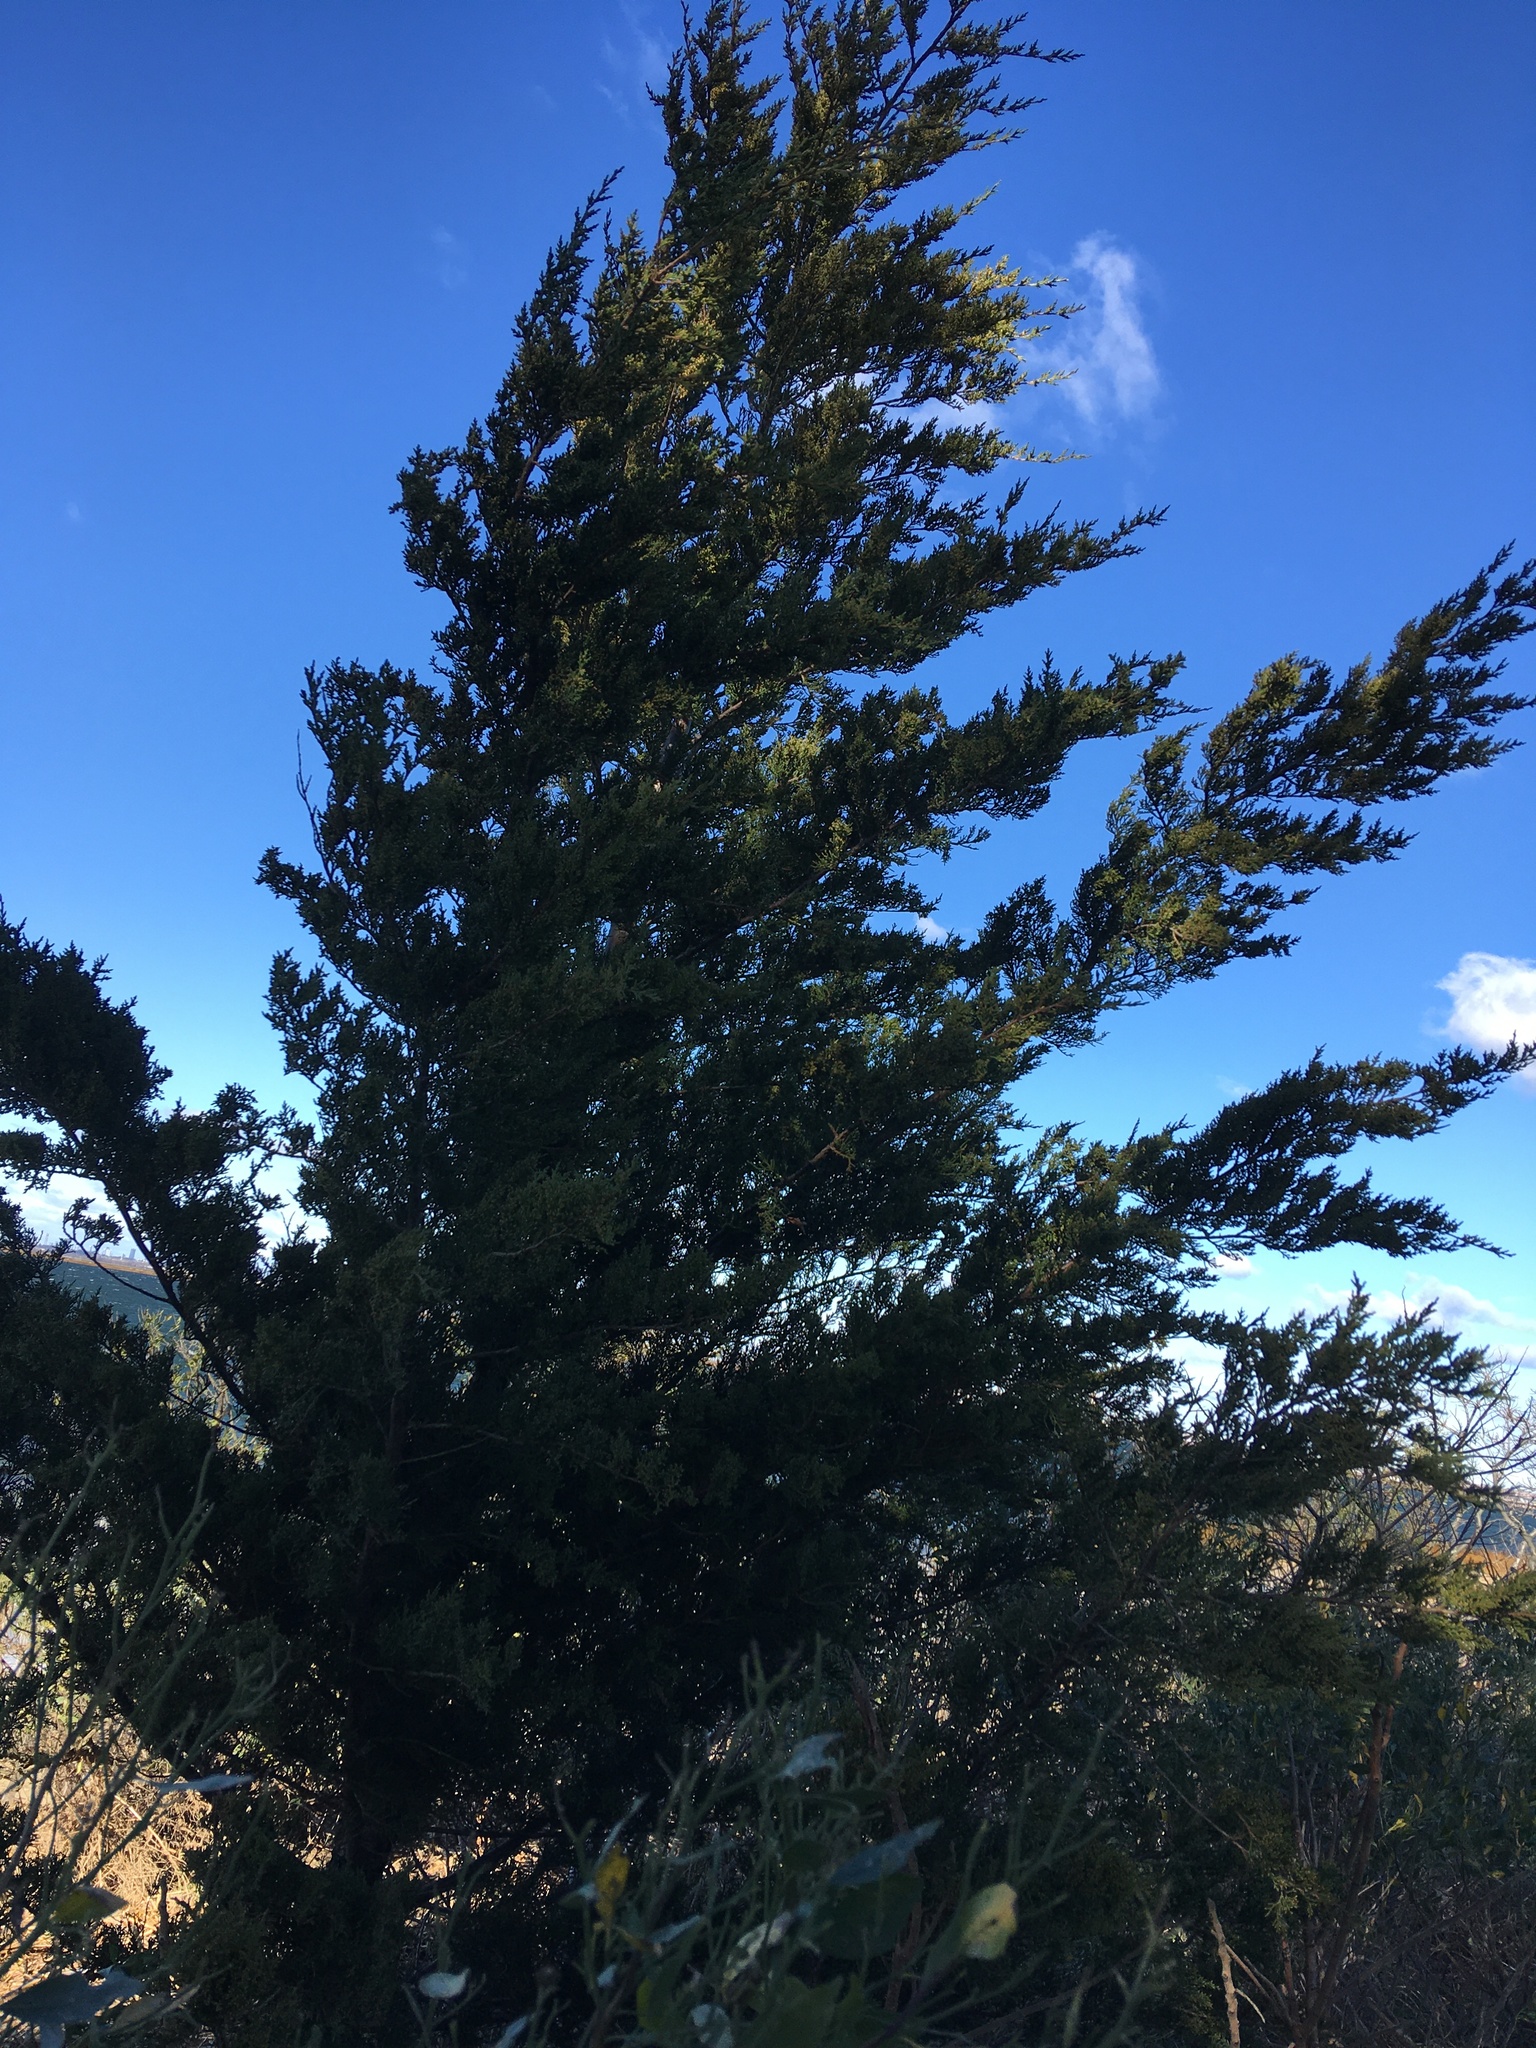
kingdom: Plantae
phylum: Tracheophyta
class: Pinopsida
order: Pinales
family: Cupressaceae
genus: Juniperus
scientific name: Juniperus virginiana
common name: Red juniper
